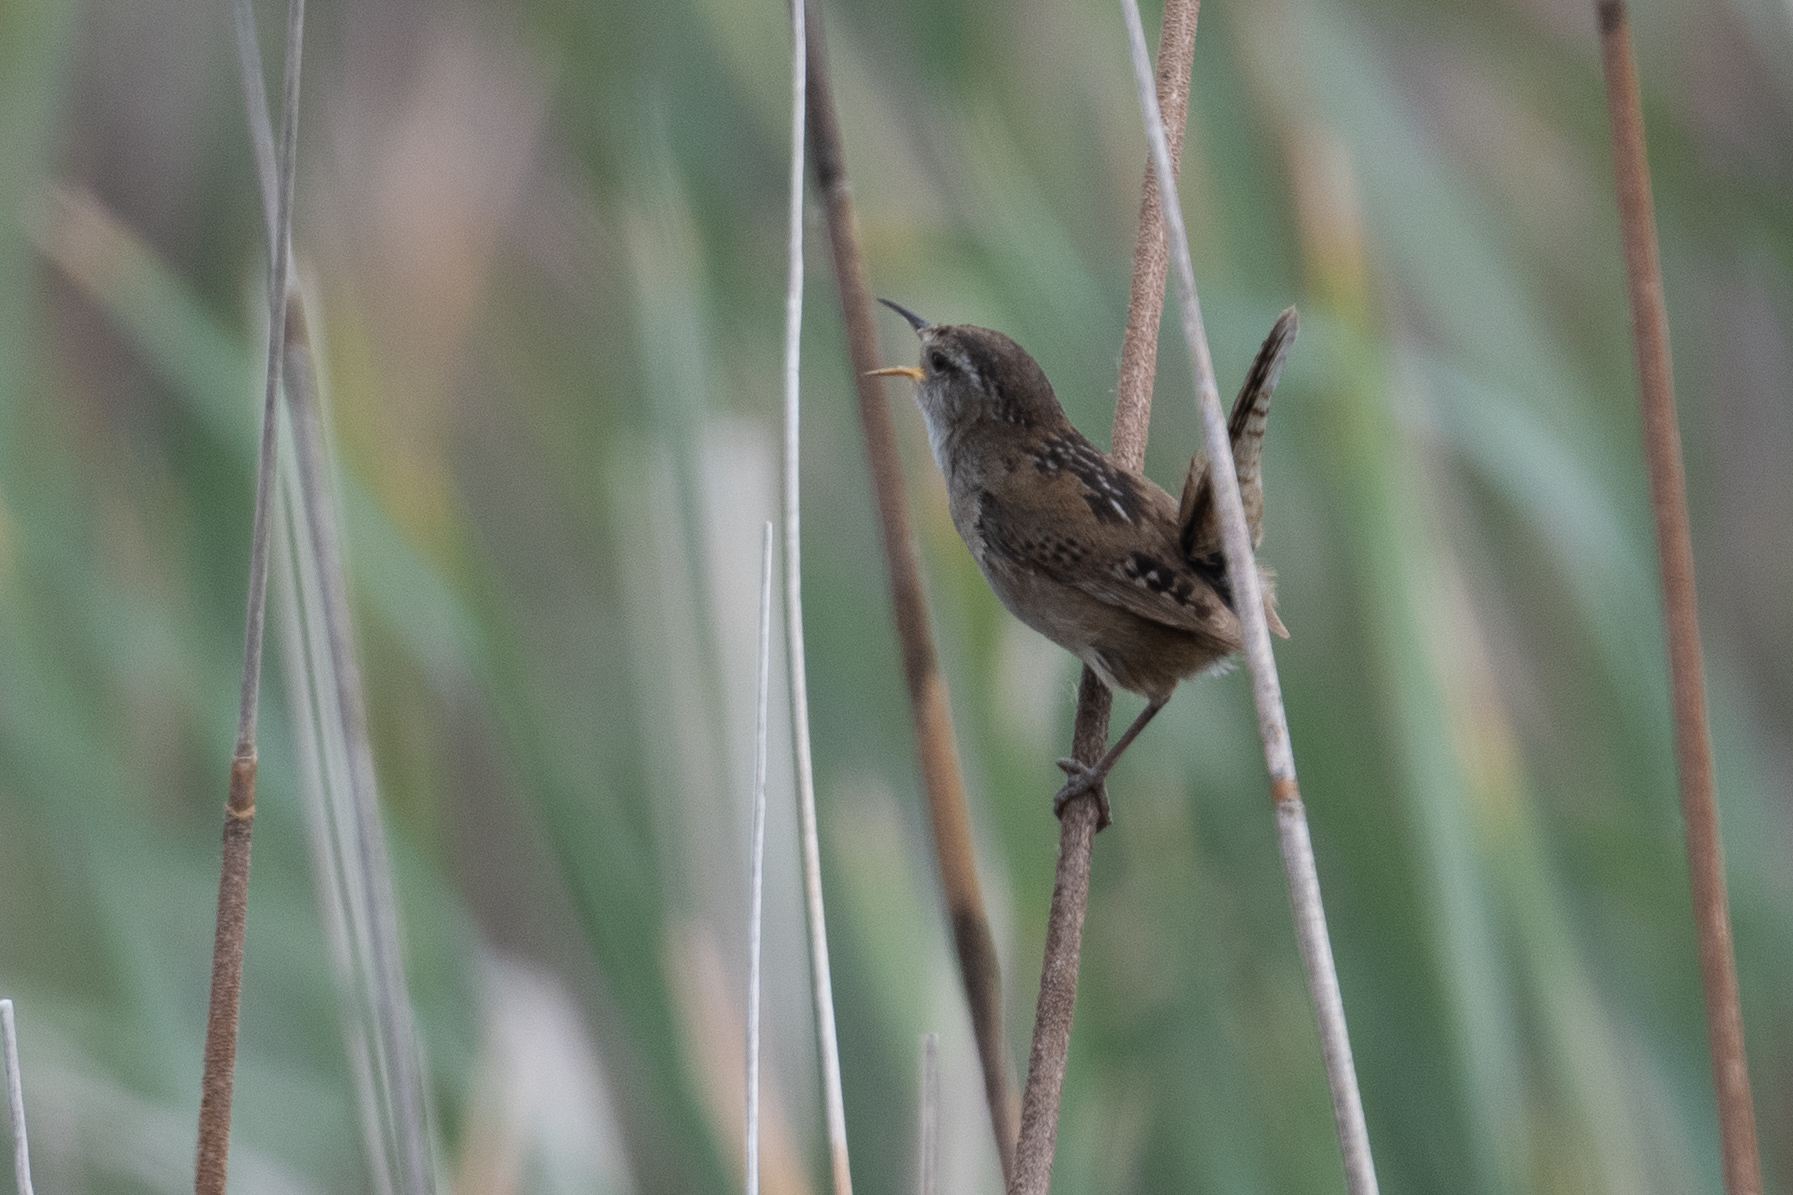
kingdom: Animalia
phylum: Chordata
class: Aves
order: Passeriformes
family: Troglodytidae
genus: Cistothorus
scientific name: Cistothorus palustris
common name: Marsh wren
